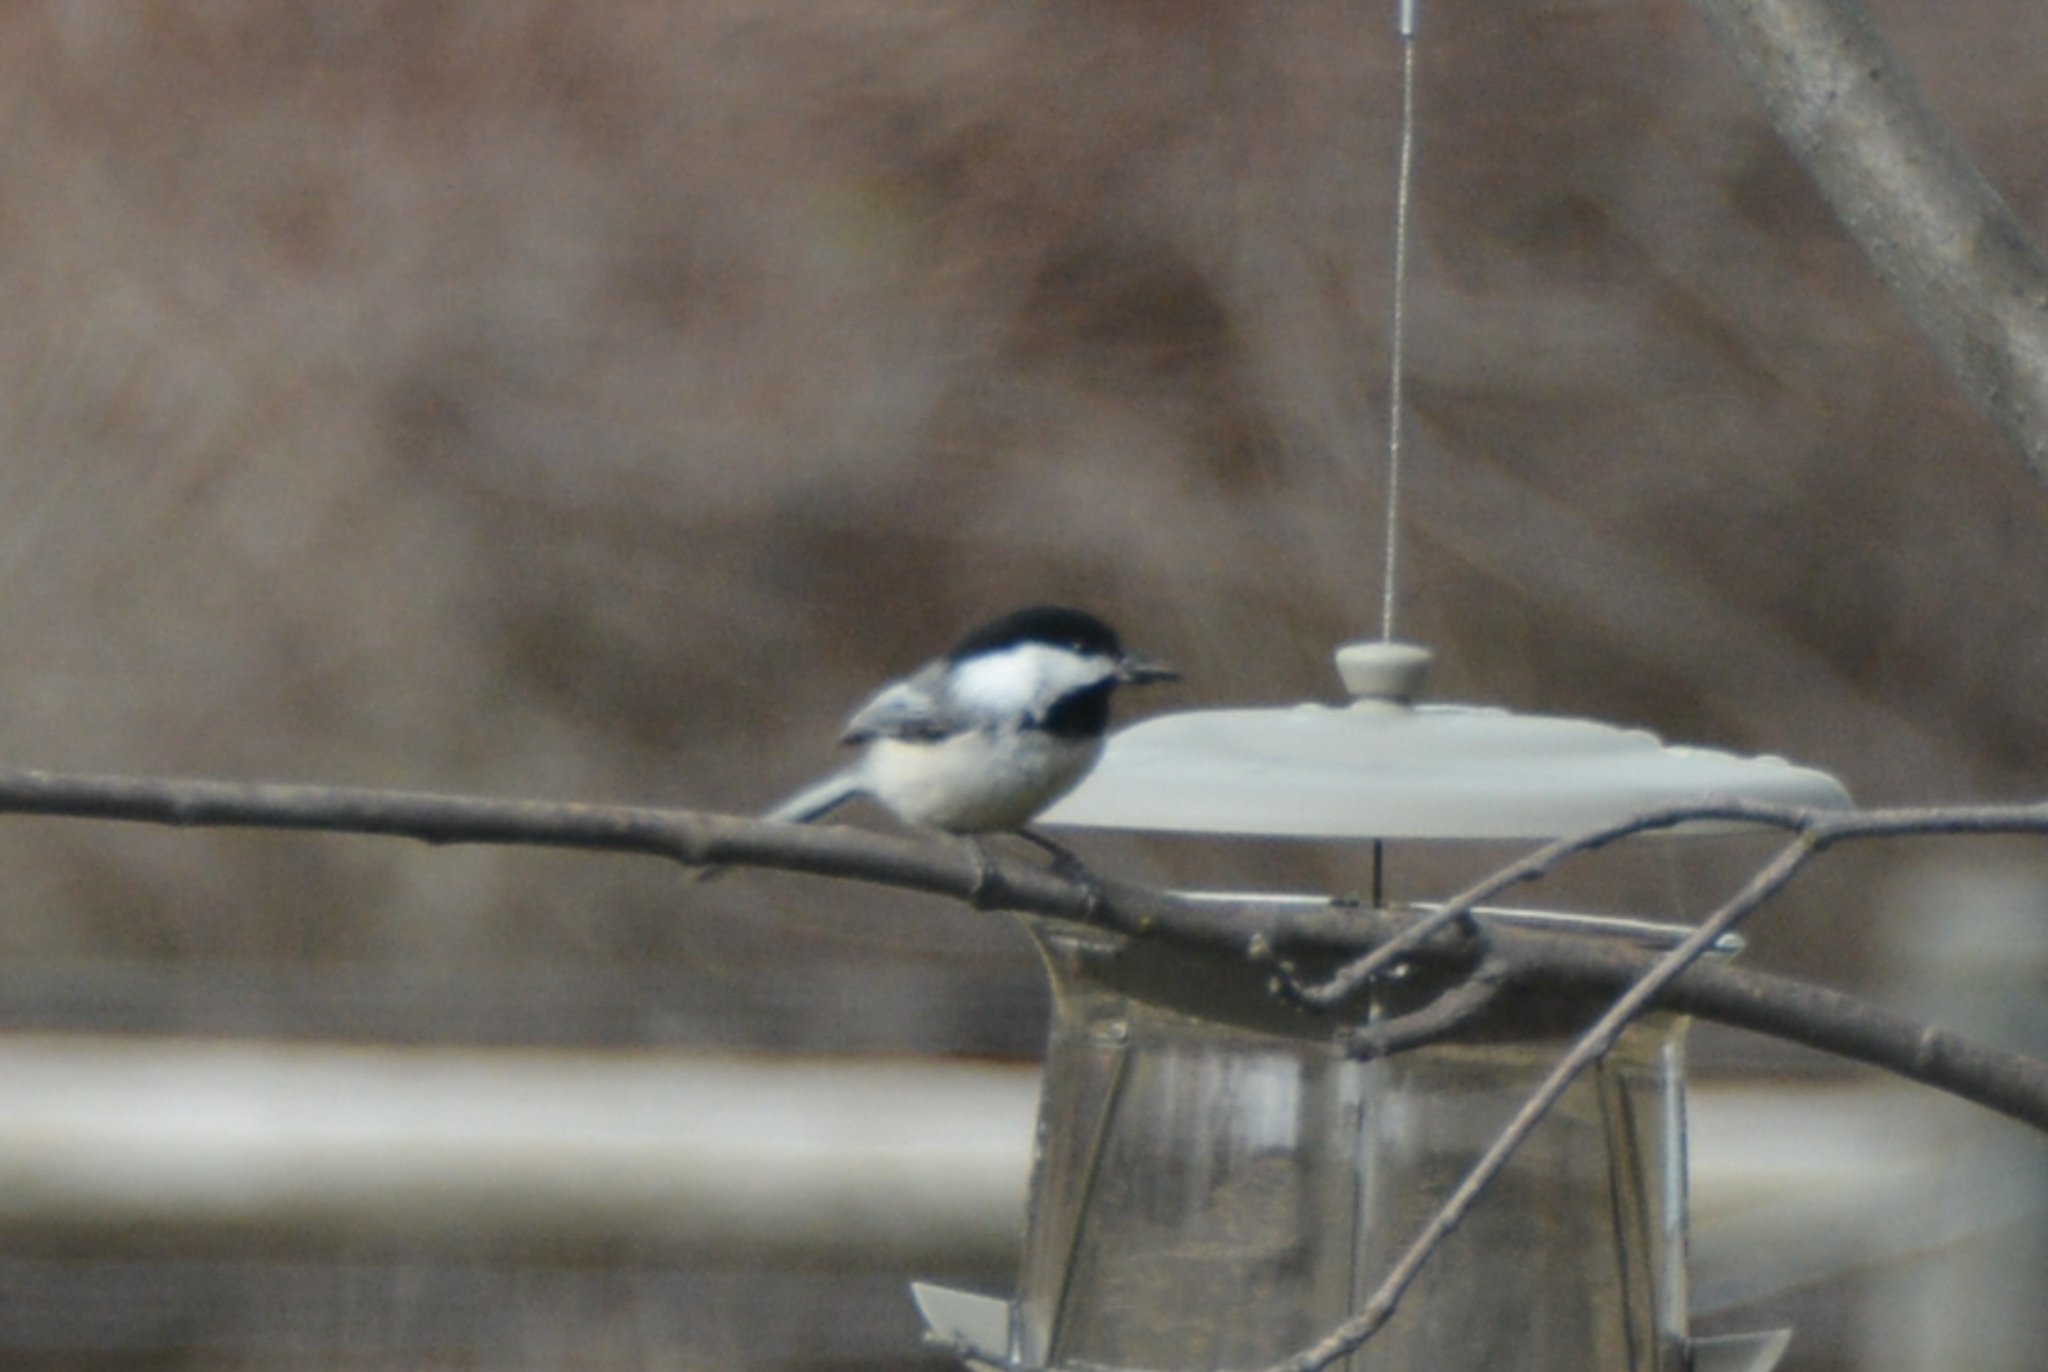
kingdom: Animalia
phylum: Chordata
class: Aves
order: Passeriformes
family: Paridae
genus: Poecile
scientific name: Poecile atricapillus
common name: Black-capped chickadee
